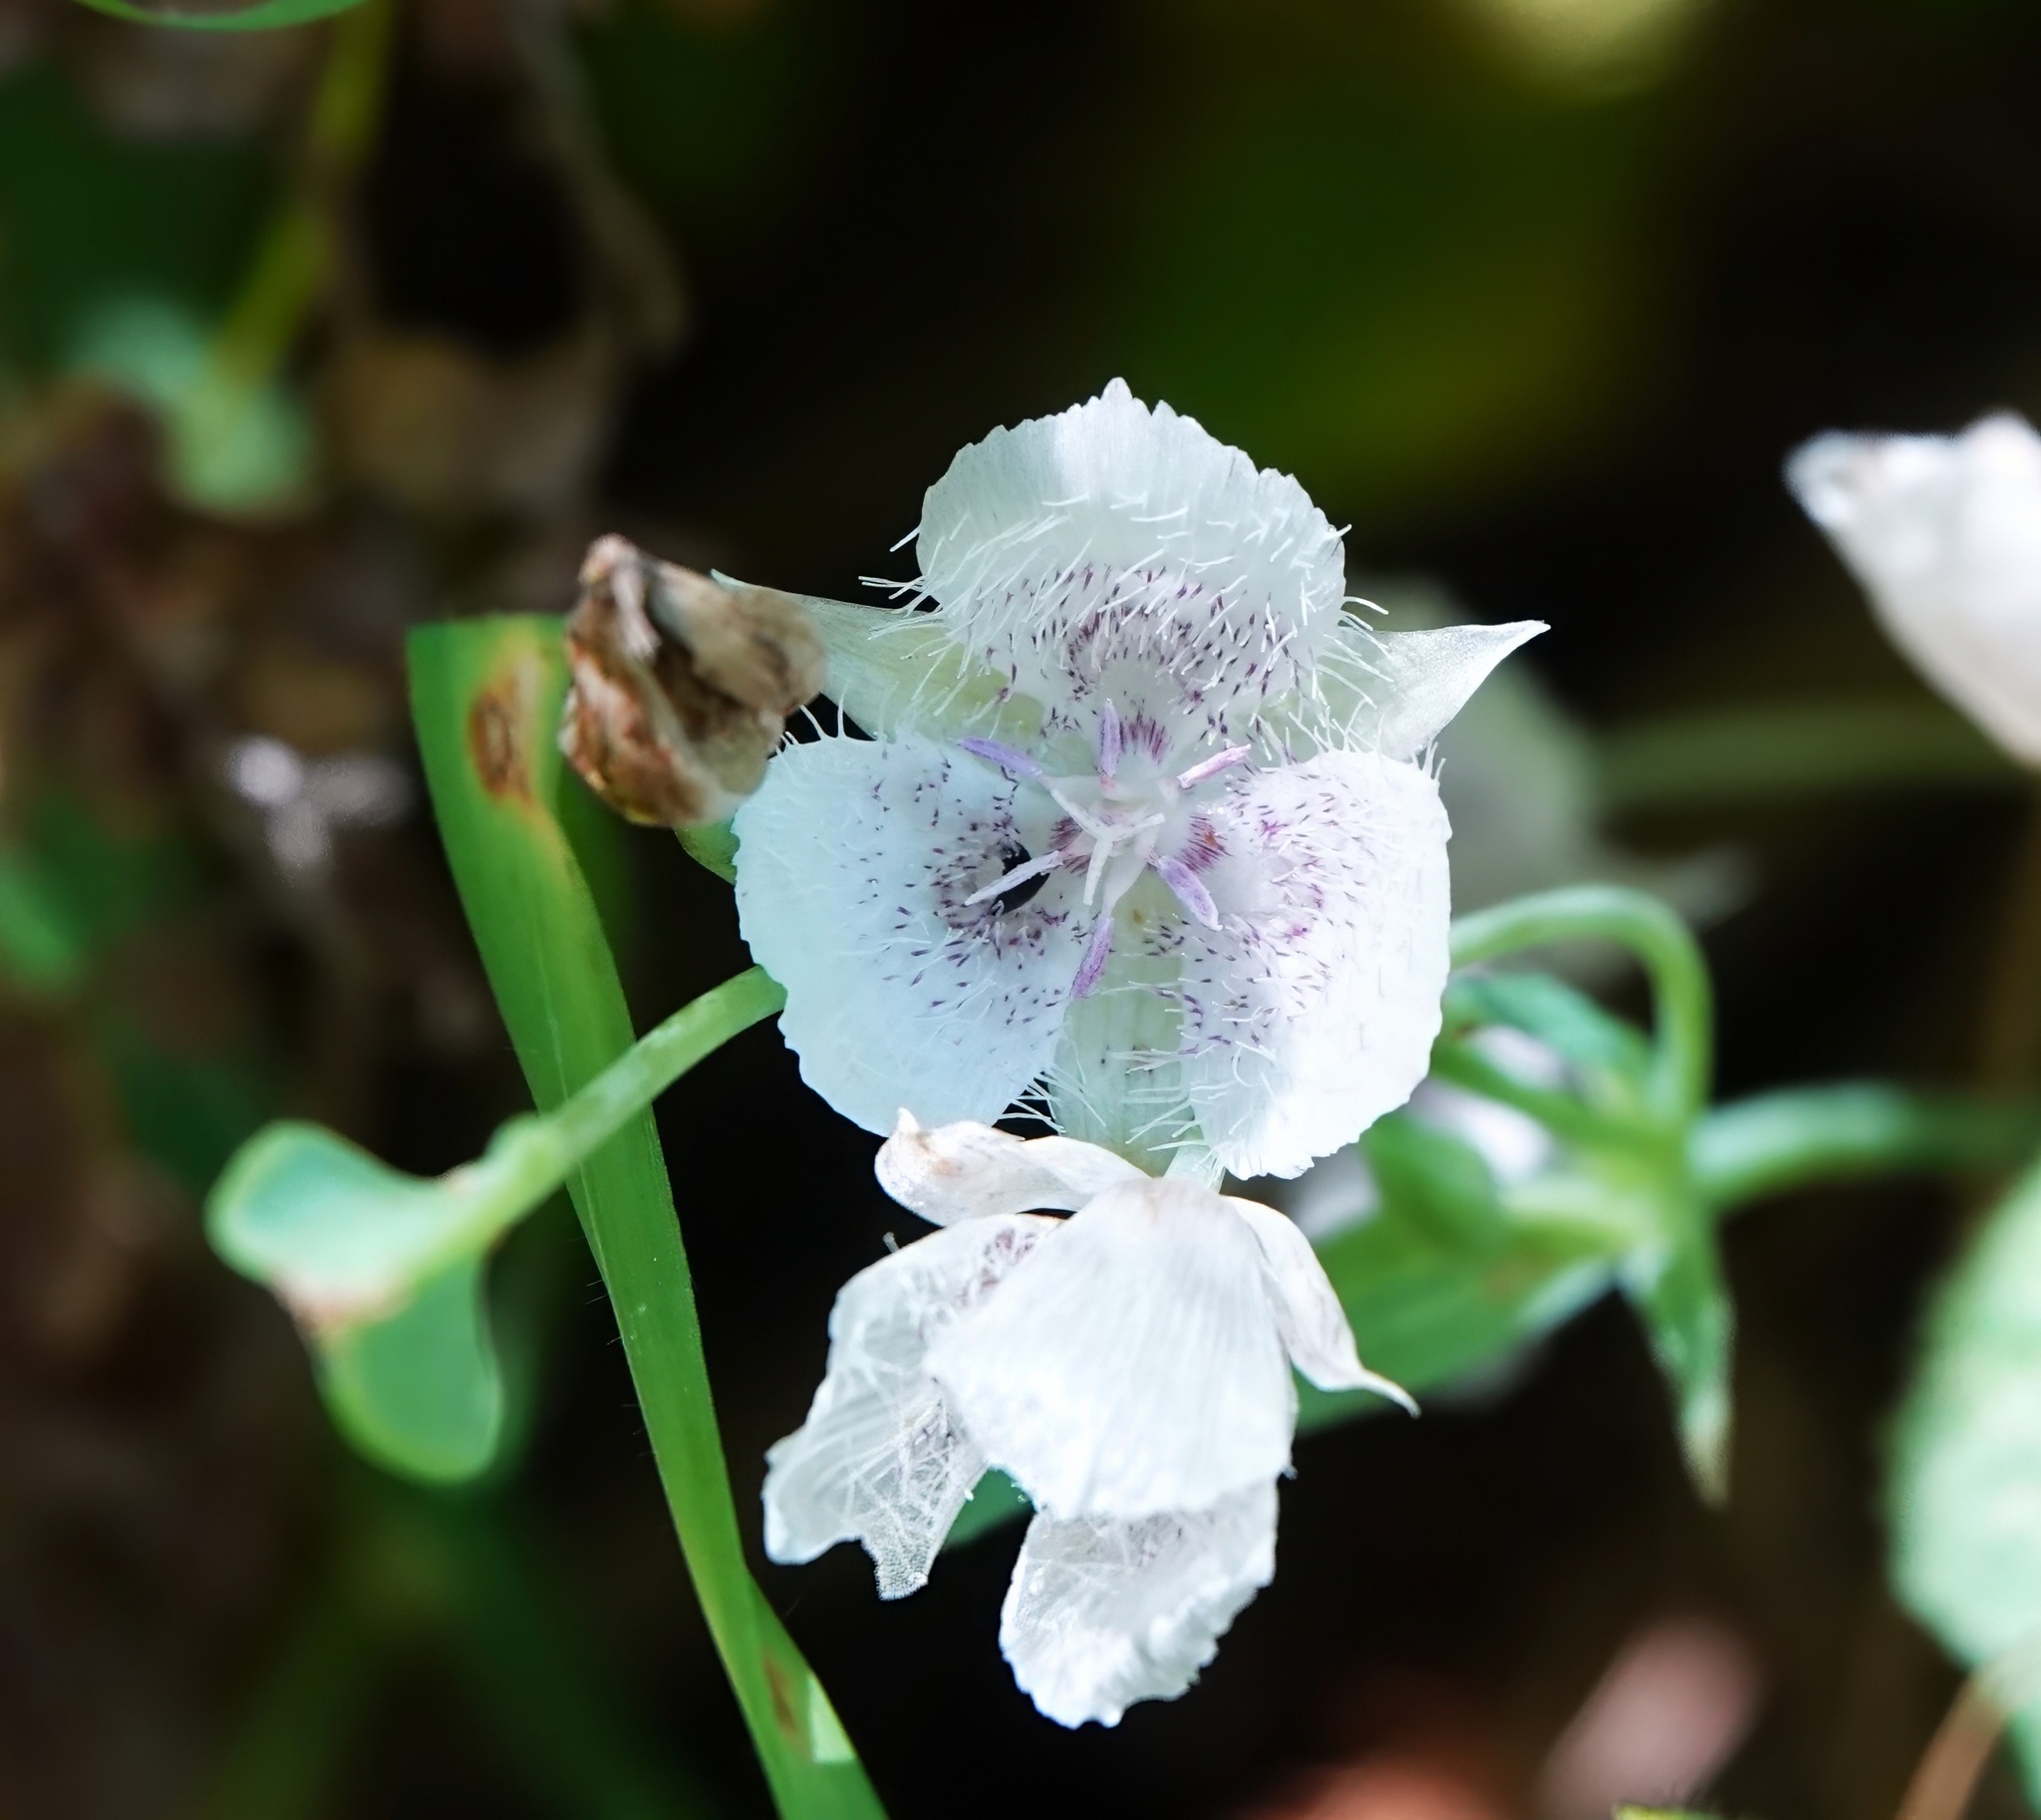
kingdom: Plantae
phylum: Tracheophyta
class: Liliopsida
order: Liliales
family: Liliaceae
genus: Calochortus
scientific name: Calochortus tolmiei
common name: Pussy-ears
